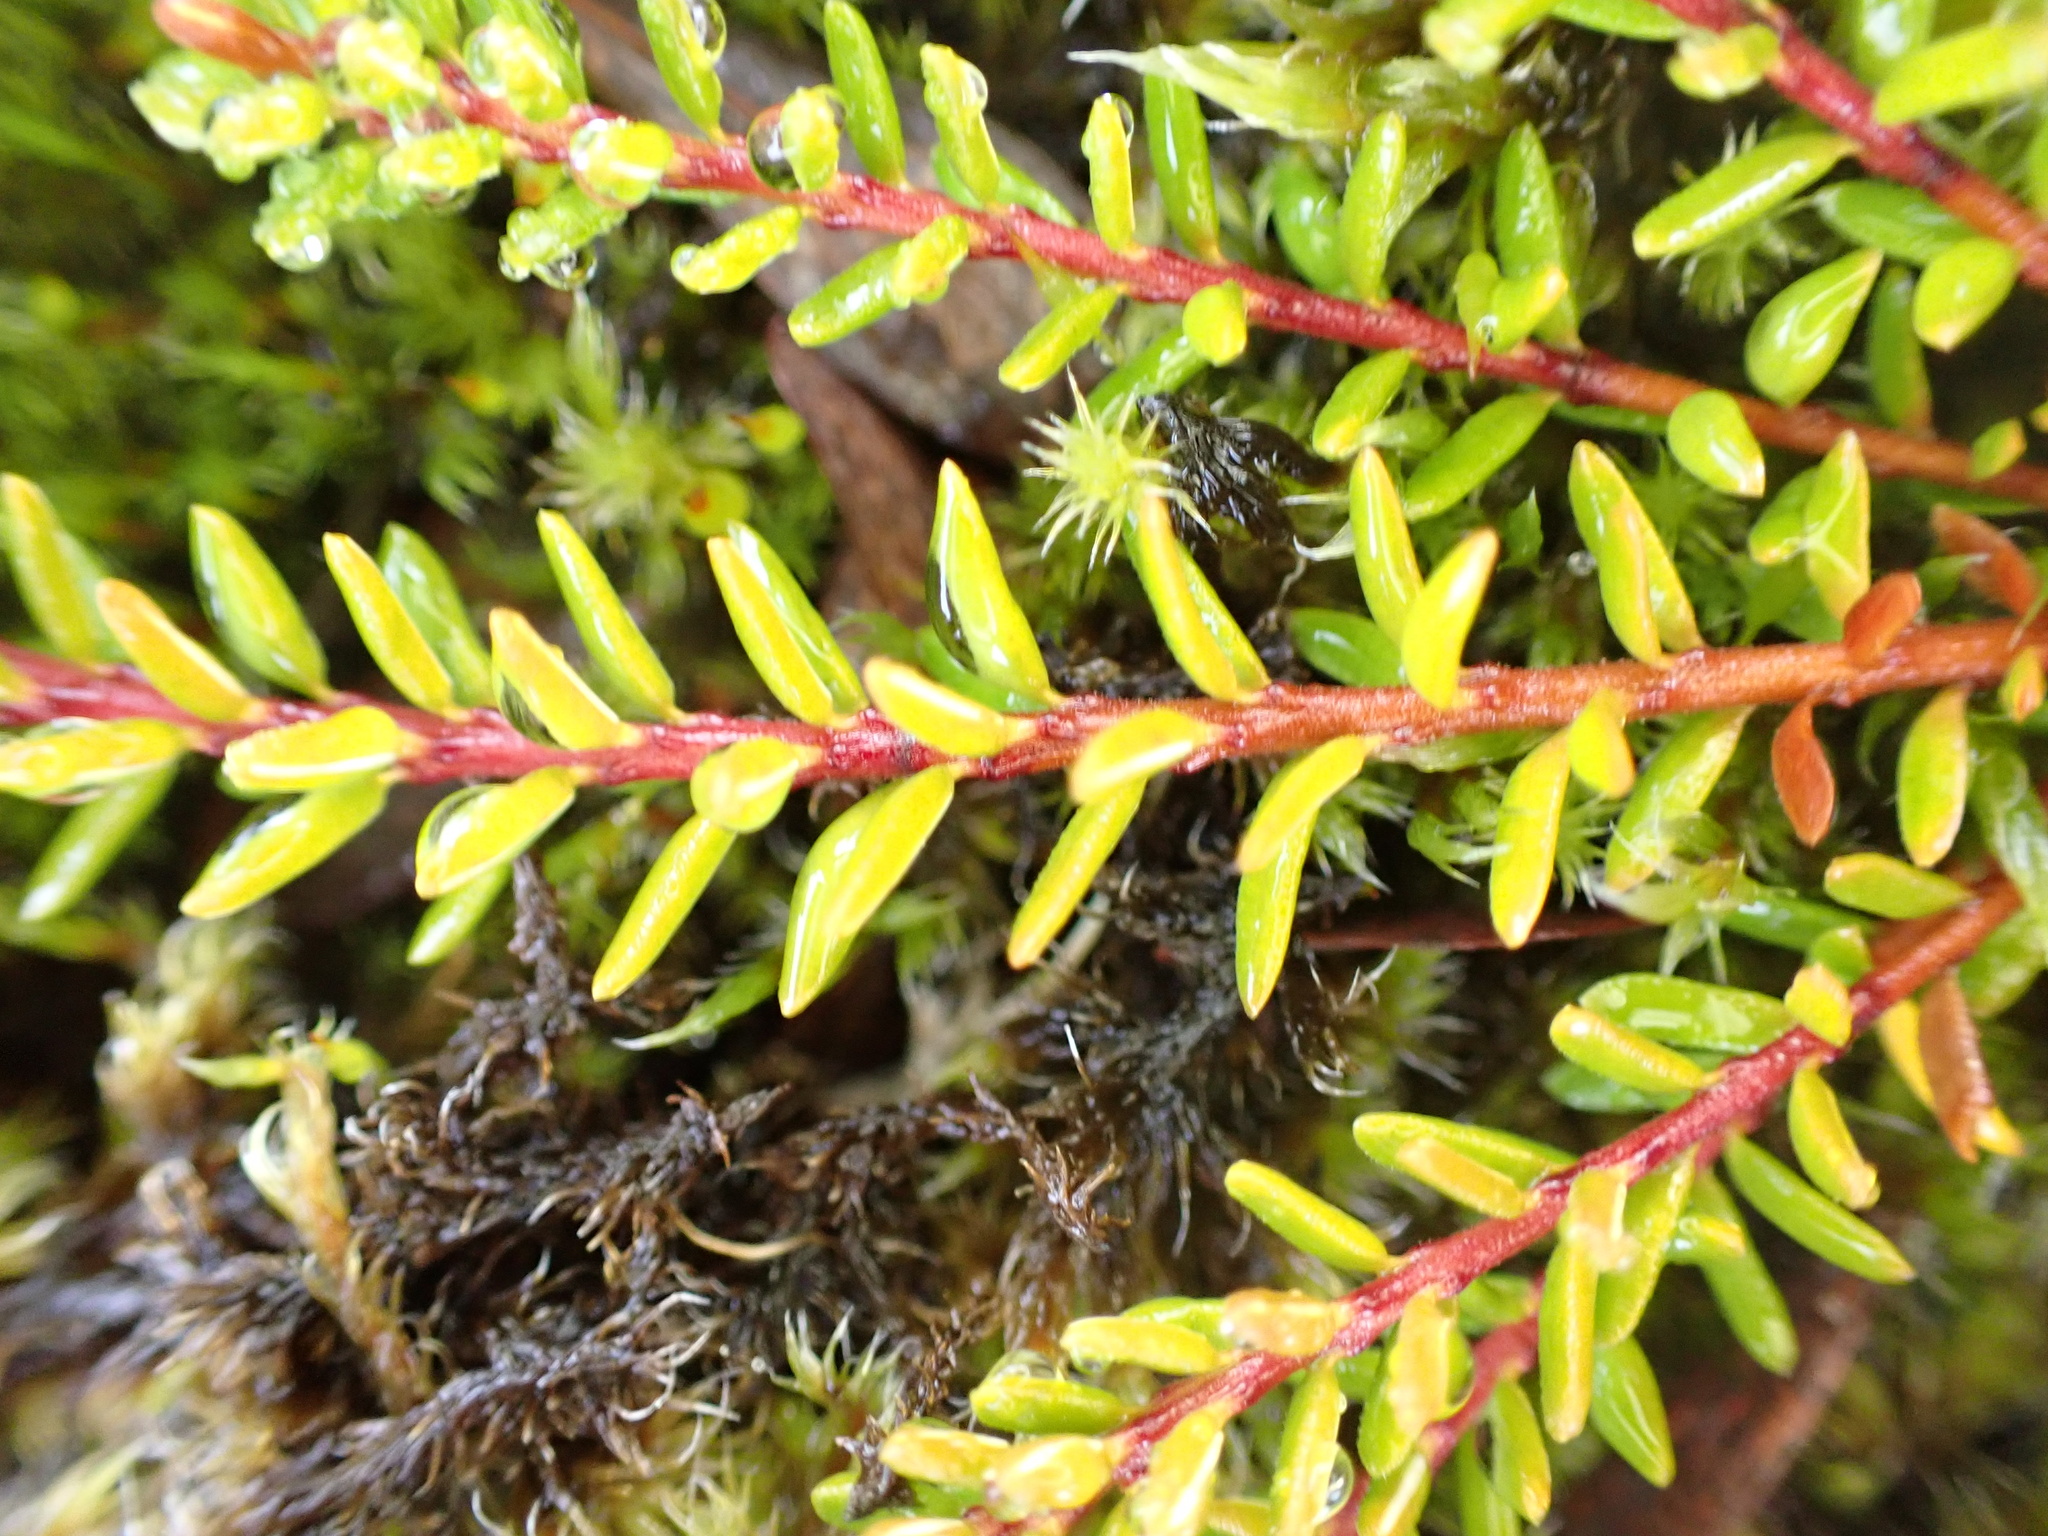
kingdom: Plantae
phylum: Tracheophyta
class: Magnoliopsida
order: Ericales
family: Ericaceae
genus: Empetrum
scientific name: Empetrum nigrum
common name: Black crowberry
